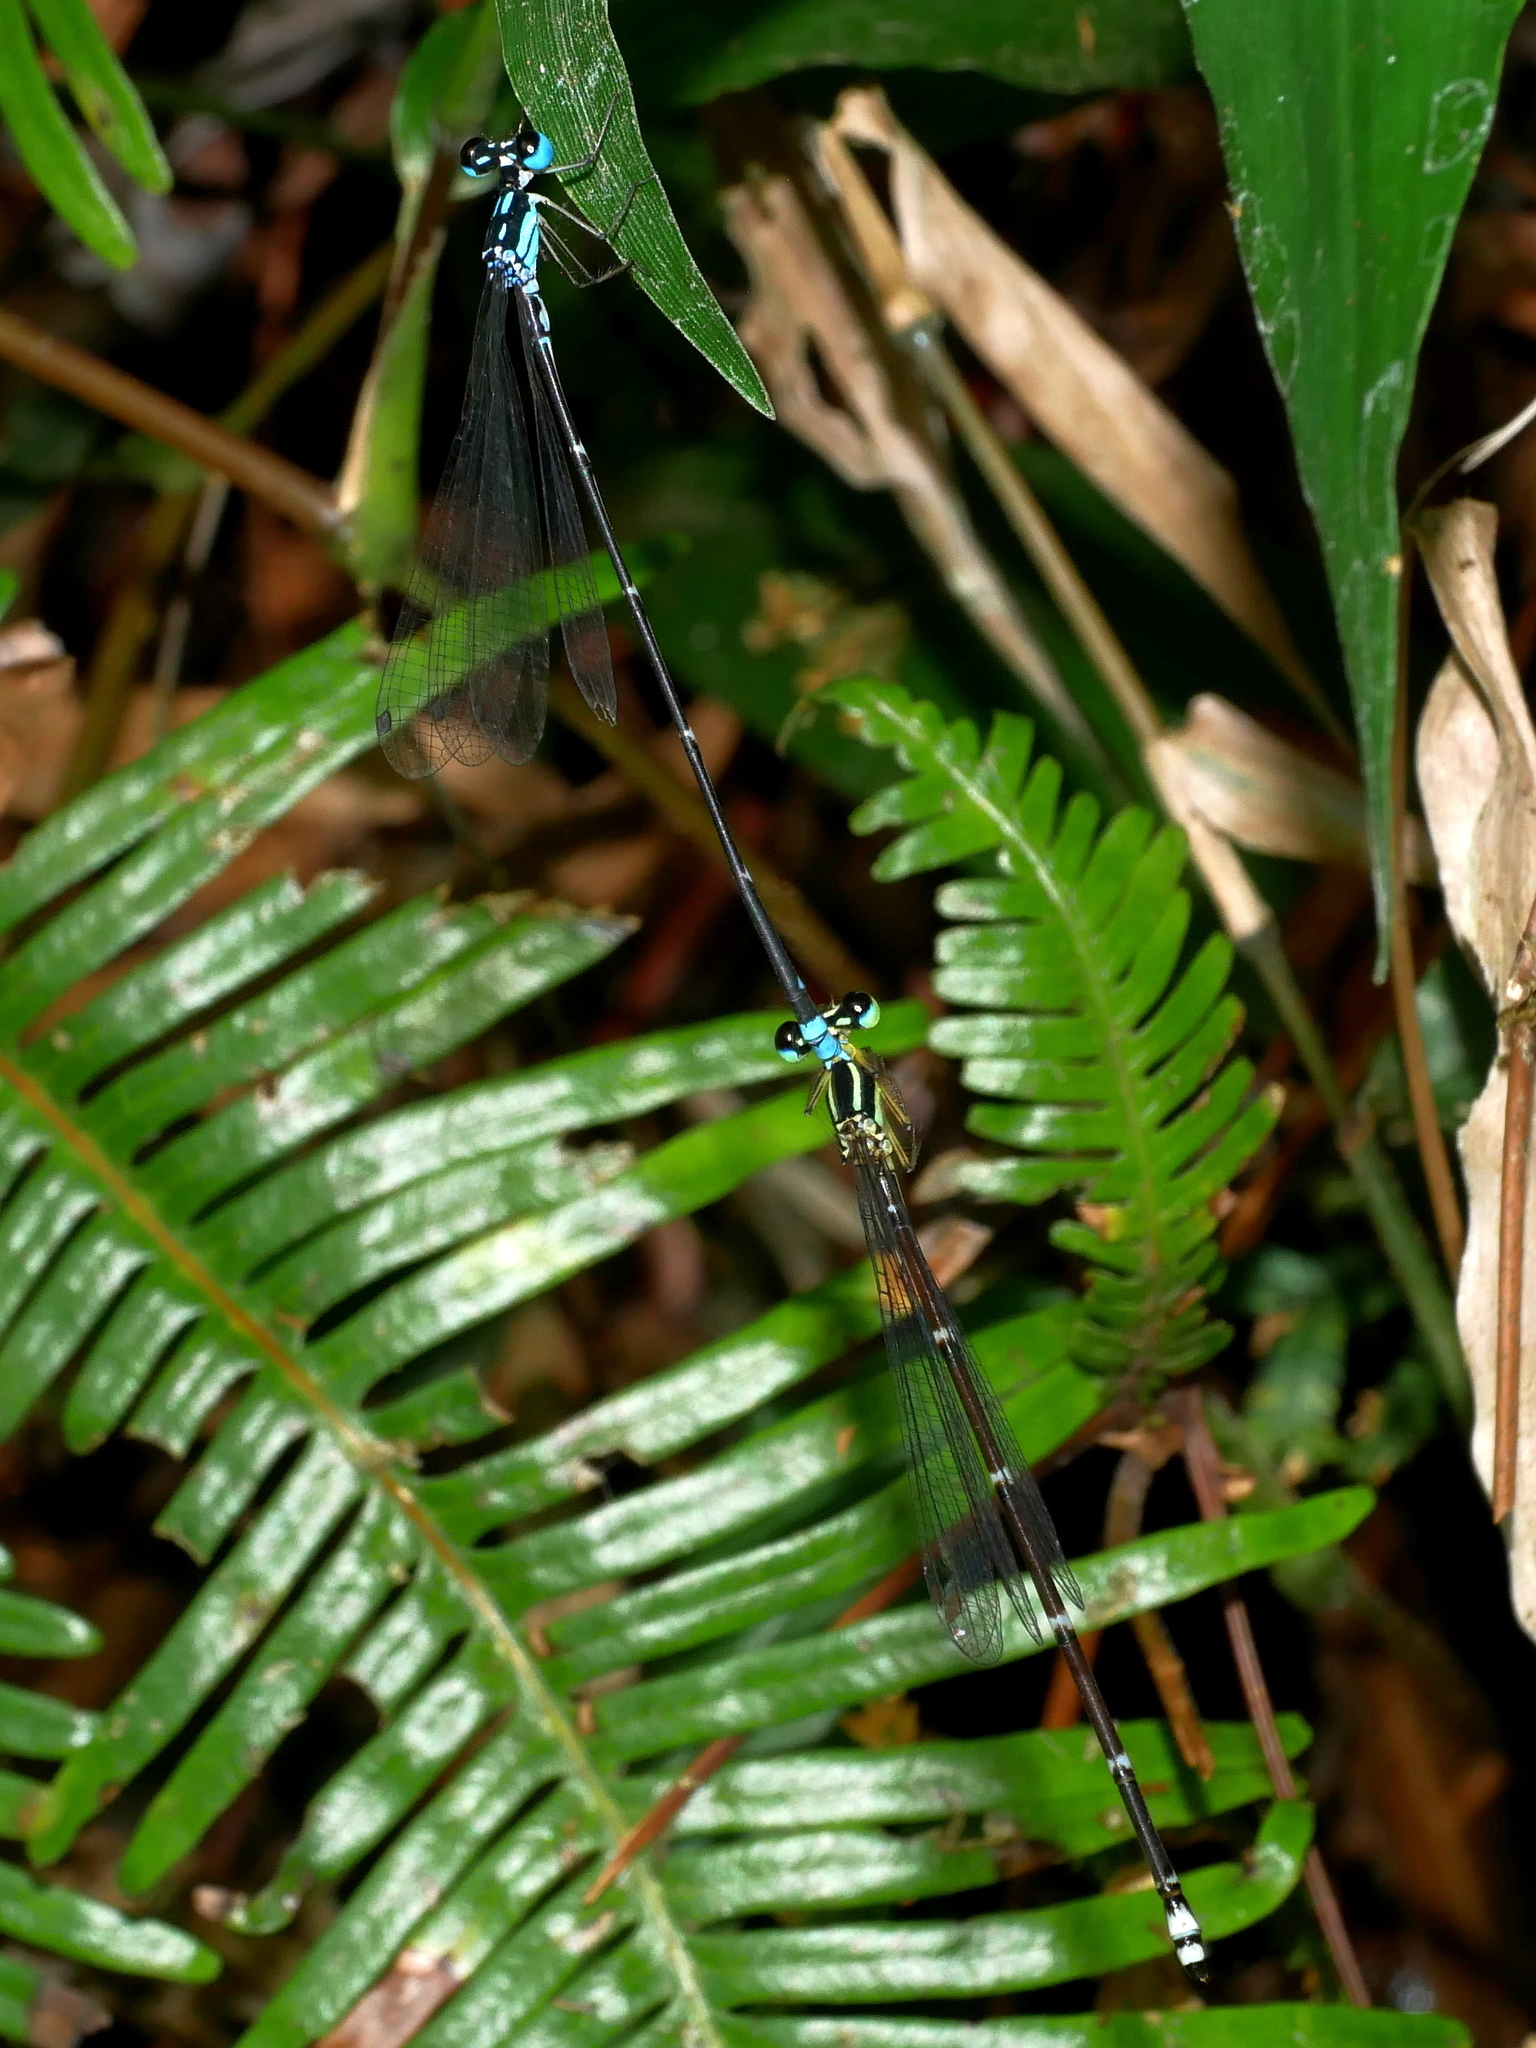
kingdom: Animalia
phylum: Arthropoda
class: Insecta
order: Odonata
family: Platycnemididae
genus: Coeliccia
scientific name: Coeliccia cyanomelas
